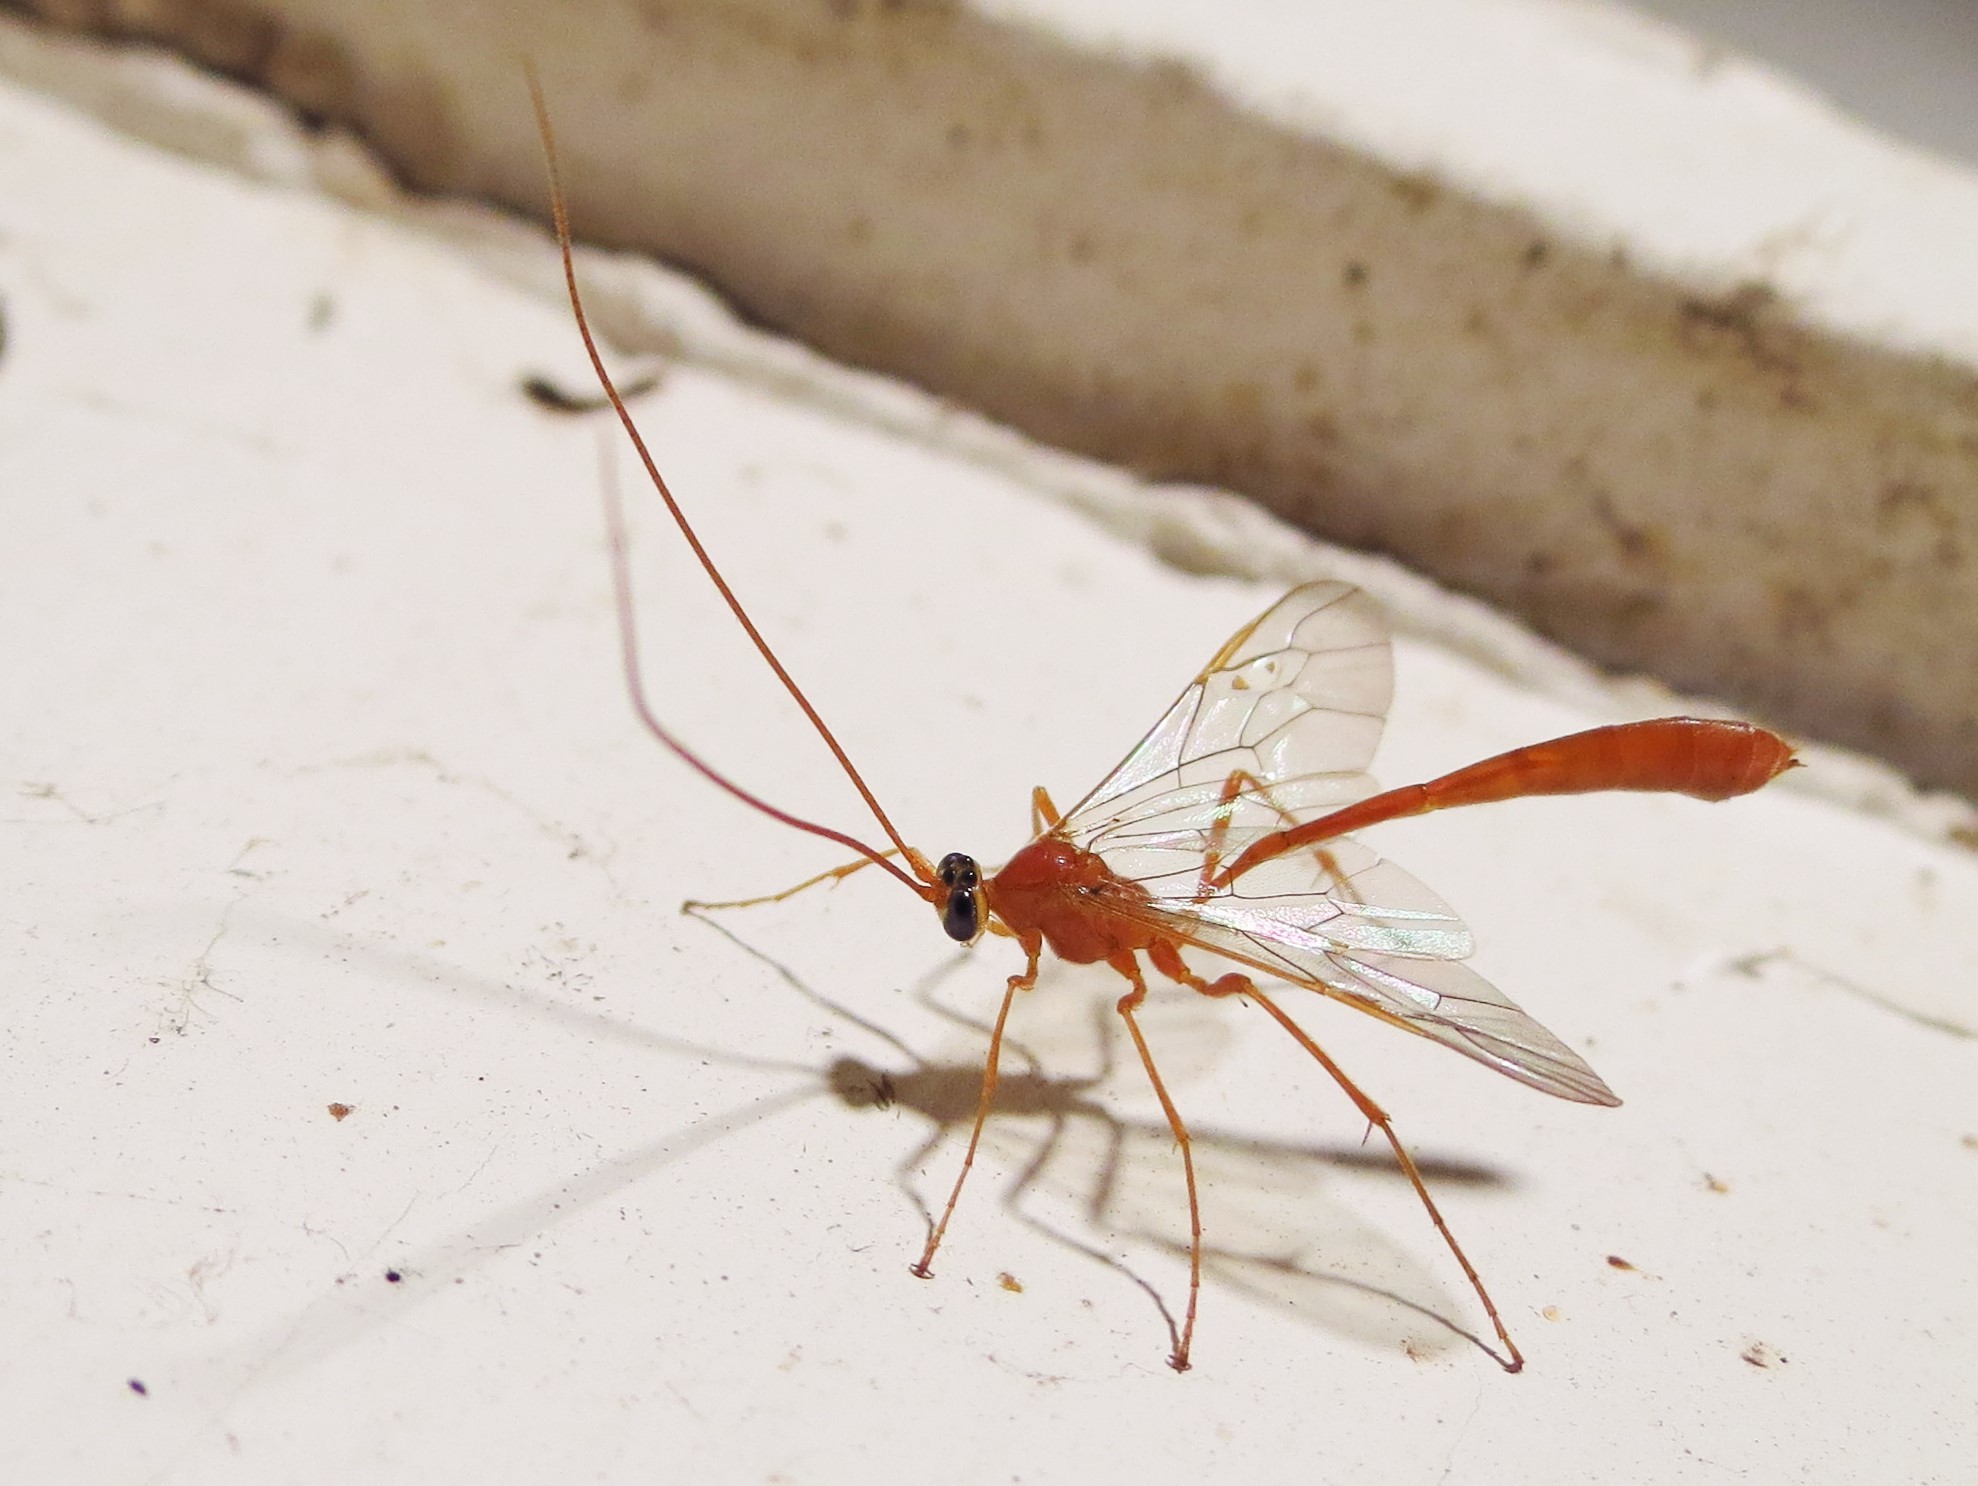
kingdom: Animalia
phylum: Arthropoda
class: Insecta
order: Hymenoptera
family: Ichneumonidae
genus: Enicospilus
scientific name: Enicospilus purgatus
